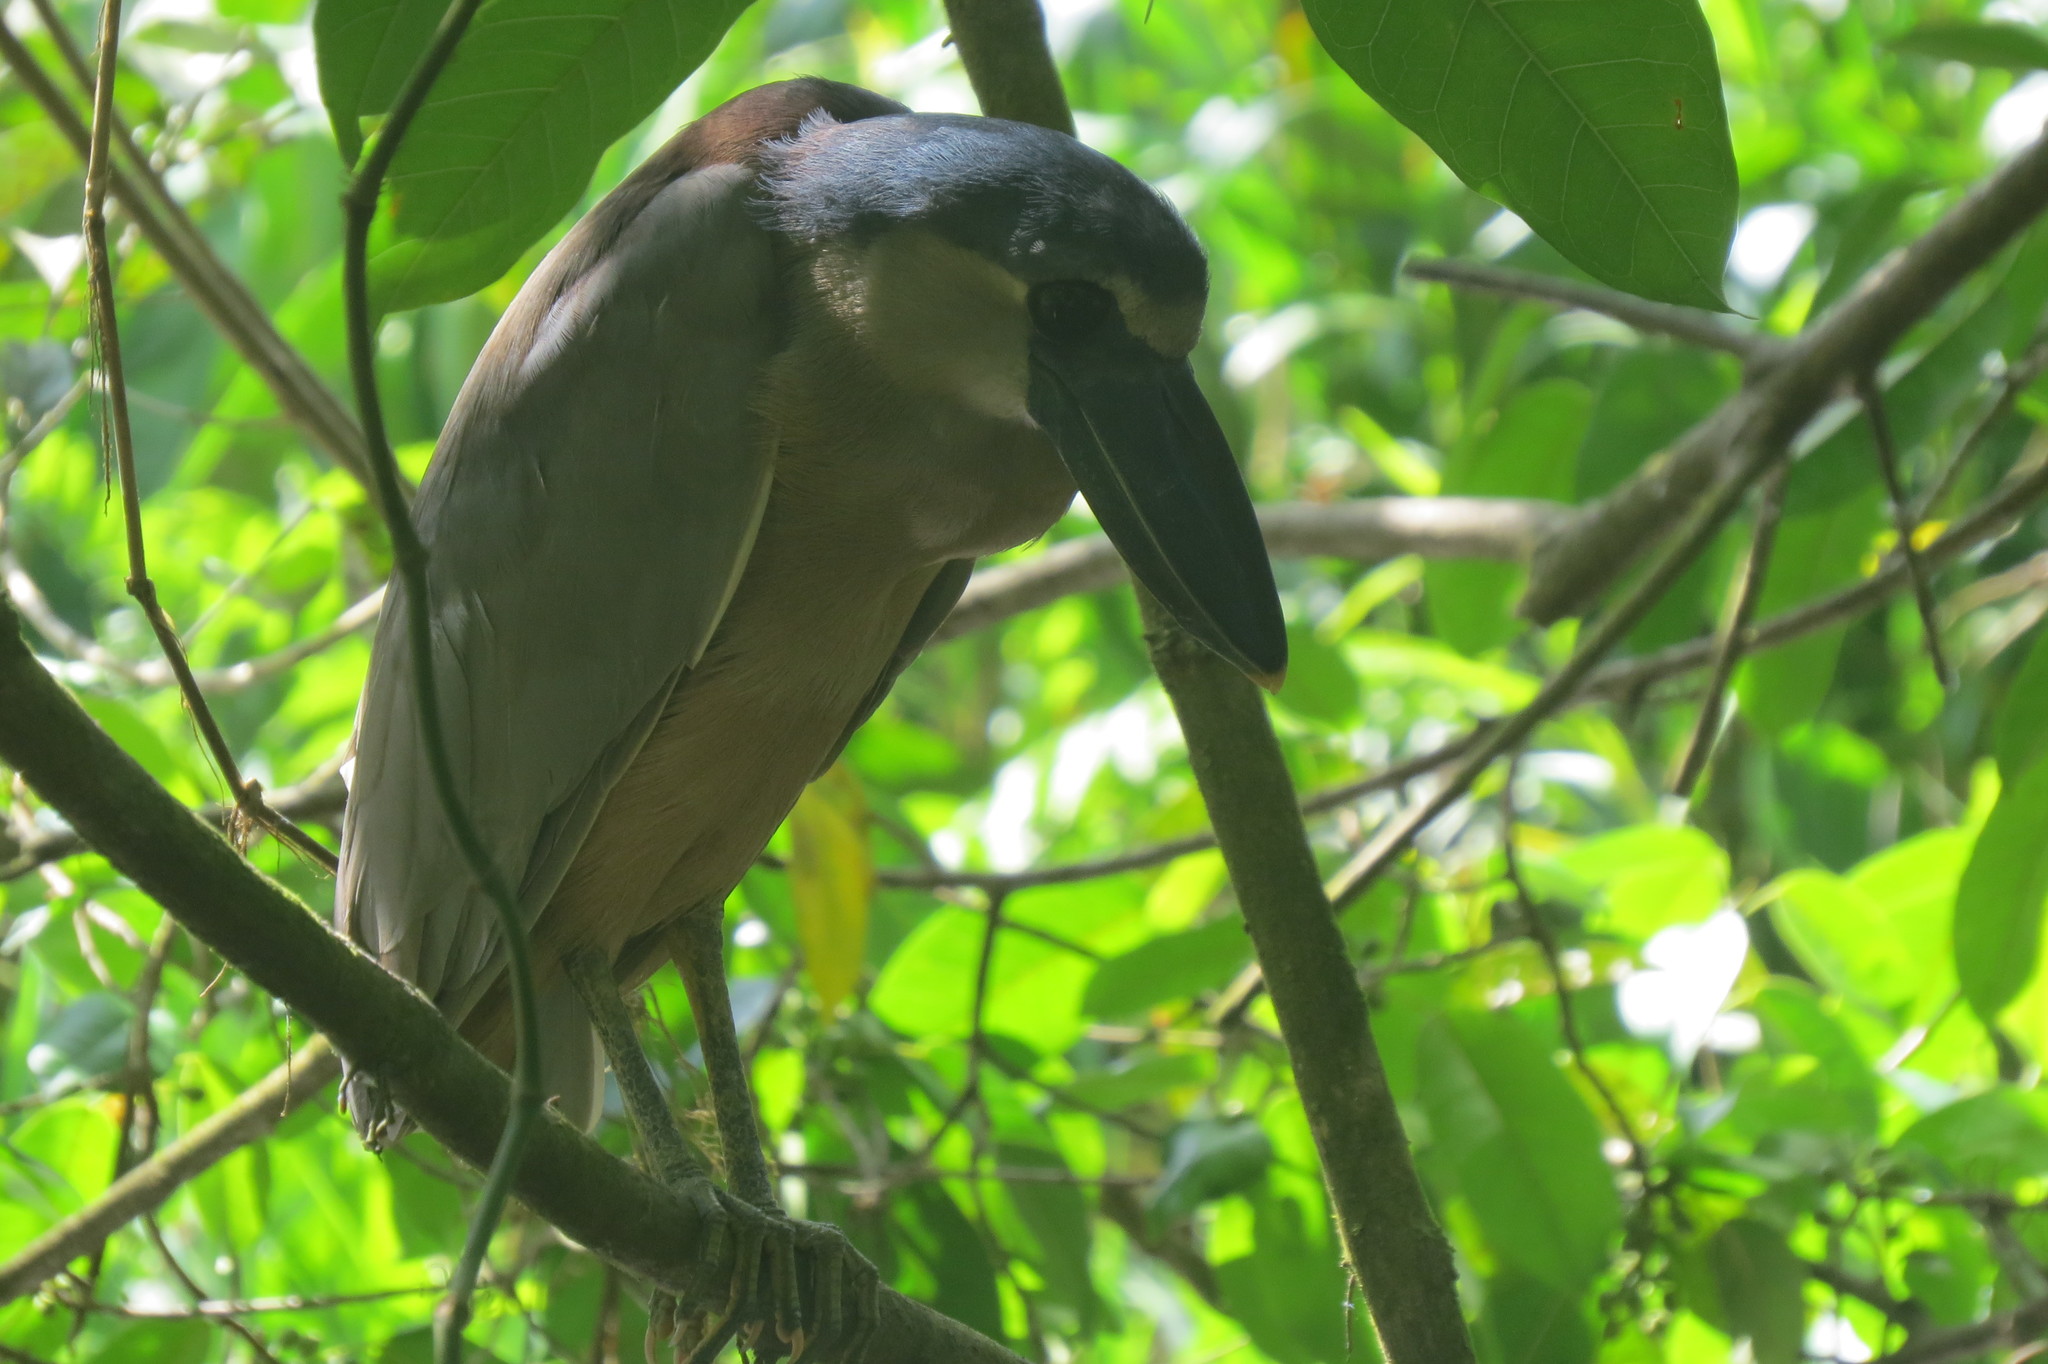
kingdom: Animalia
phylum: Chordata
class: Aves
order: Pelecaniformes
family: Ardeidae
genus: Cochlearius
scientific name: Cochlearius cochlearius
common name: Boat-billed heron
